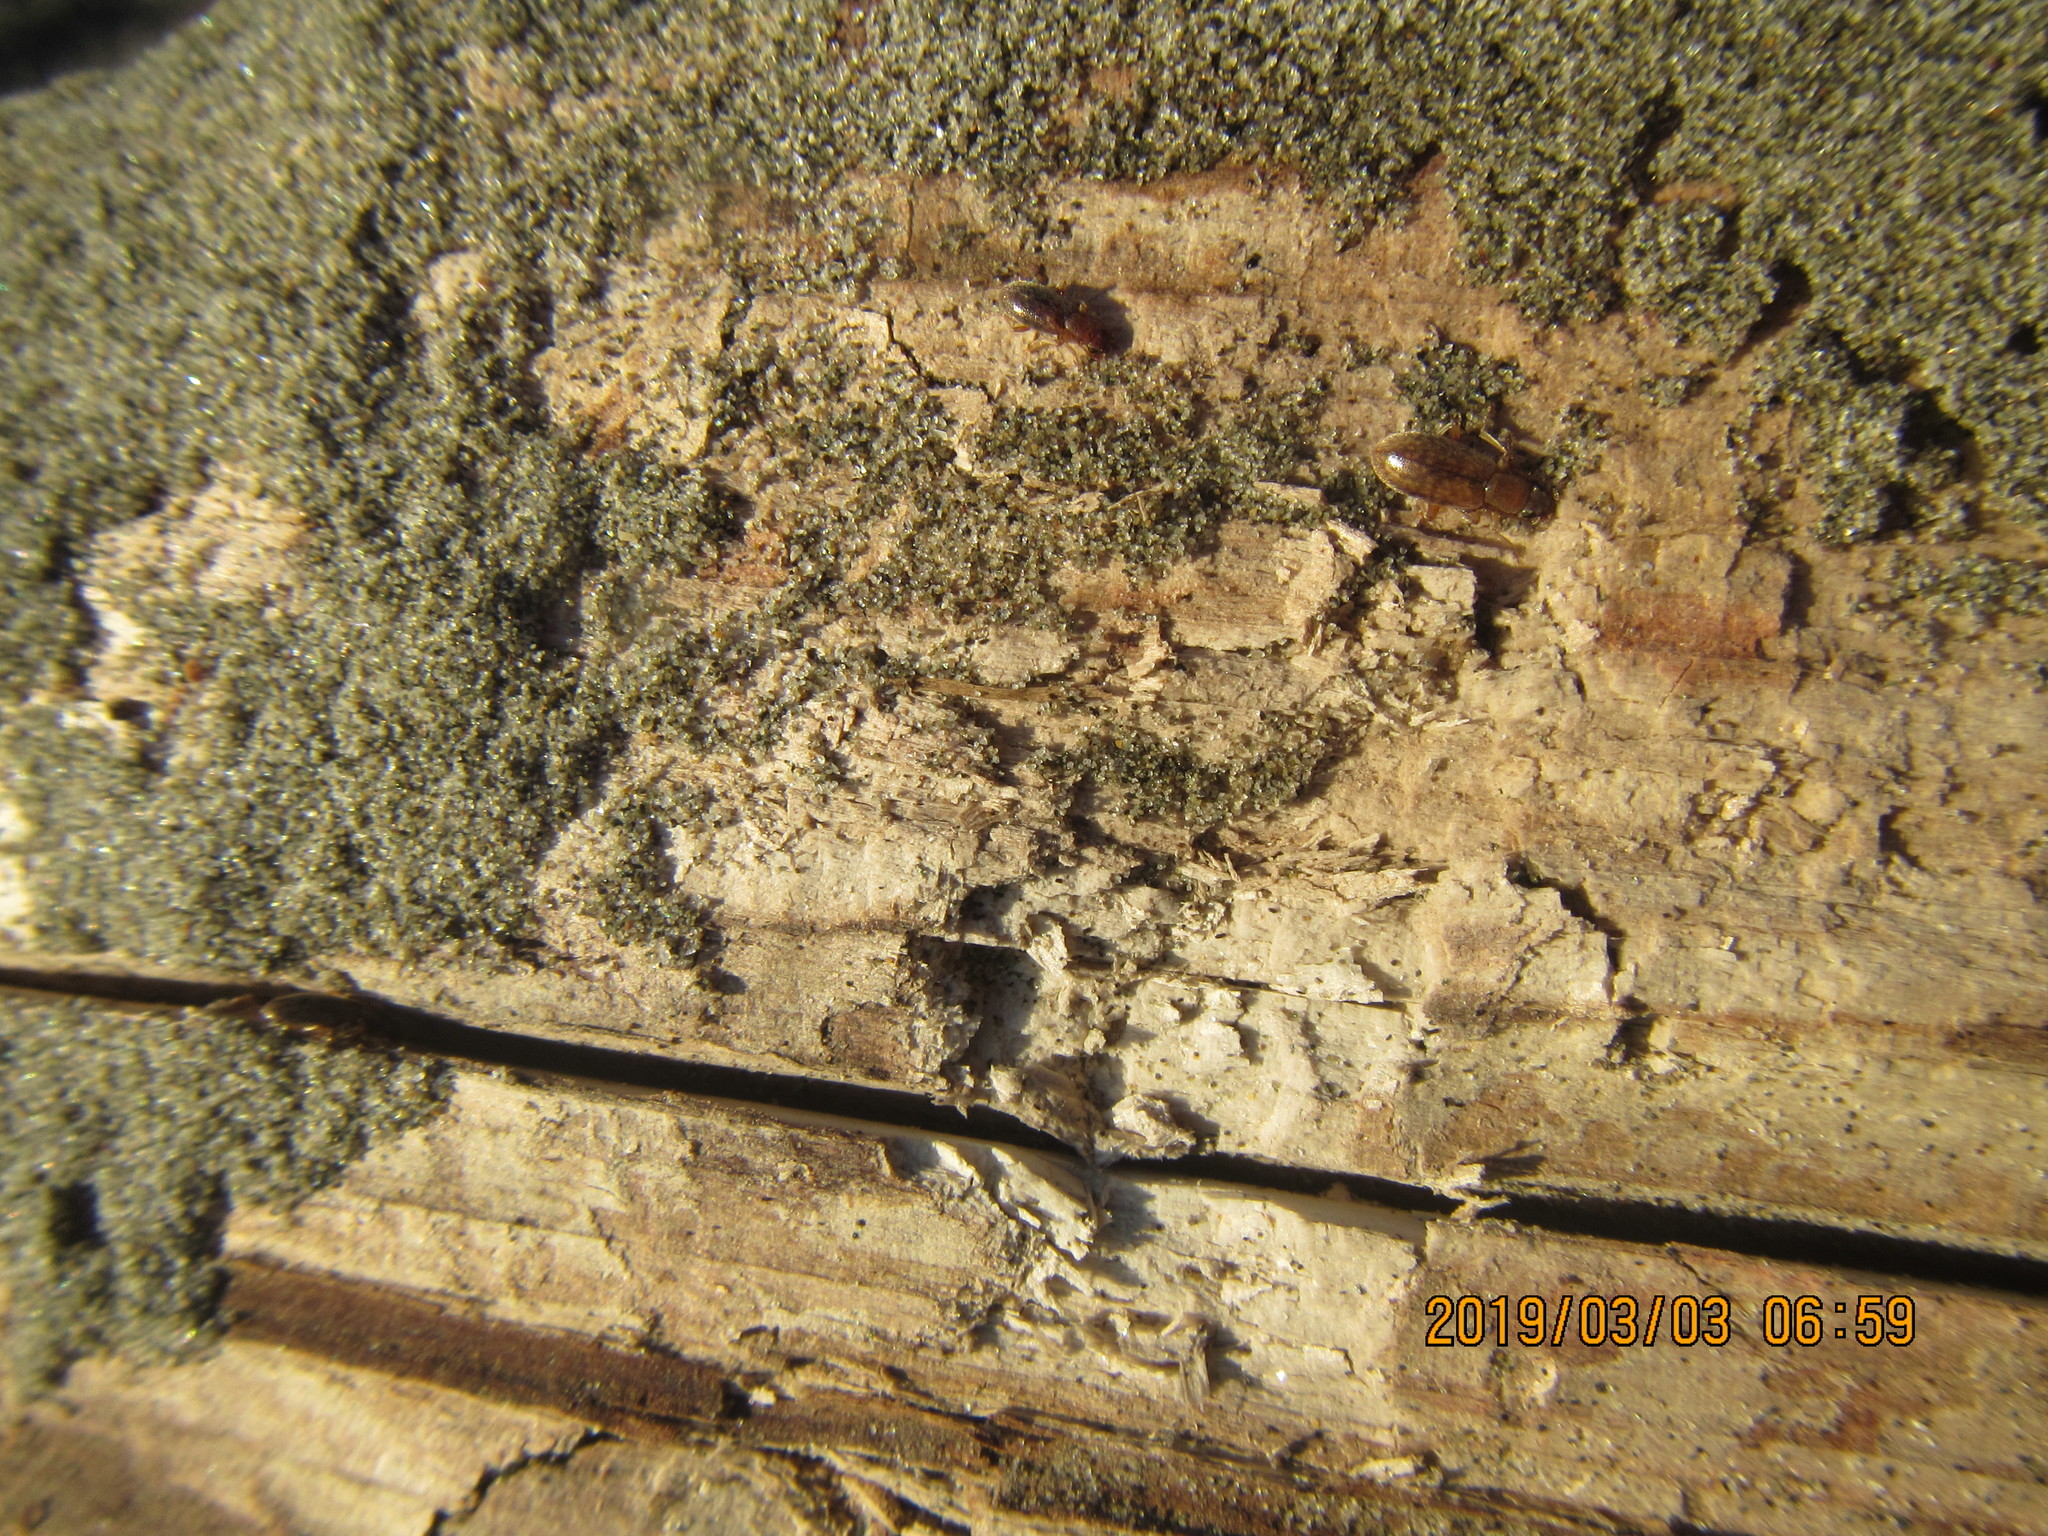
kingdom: Animalia
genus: Lagrioda
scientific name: Lagrioda brounii
